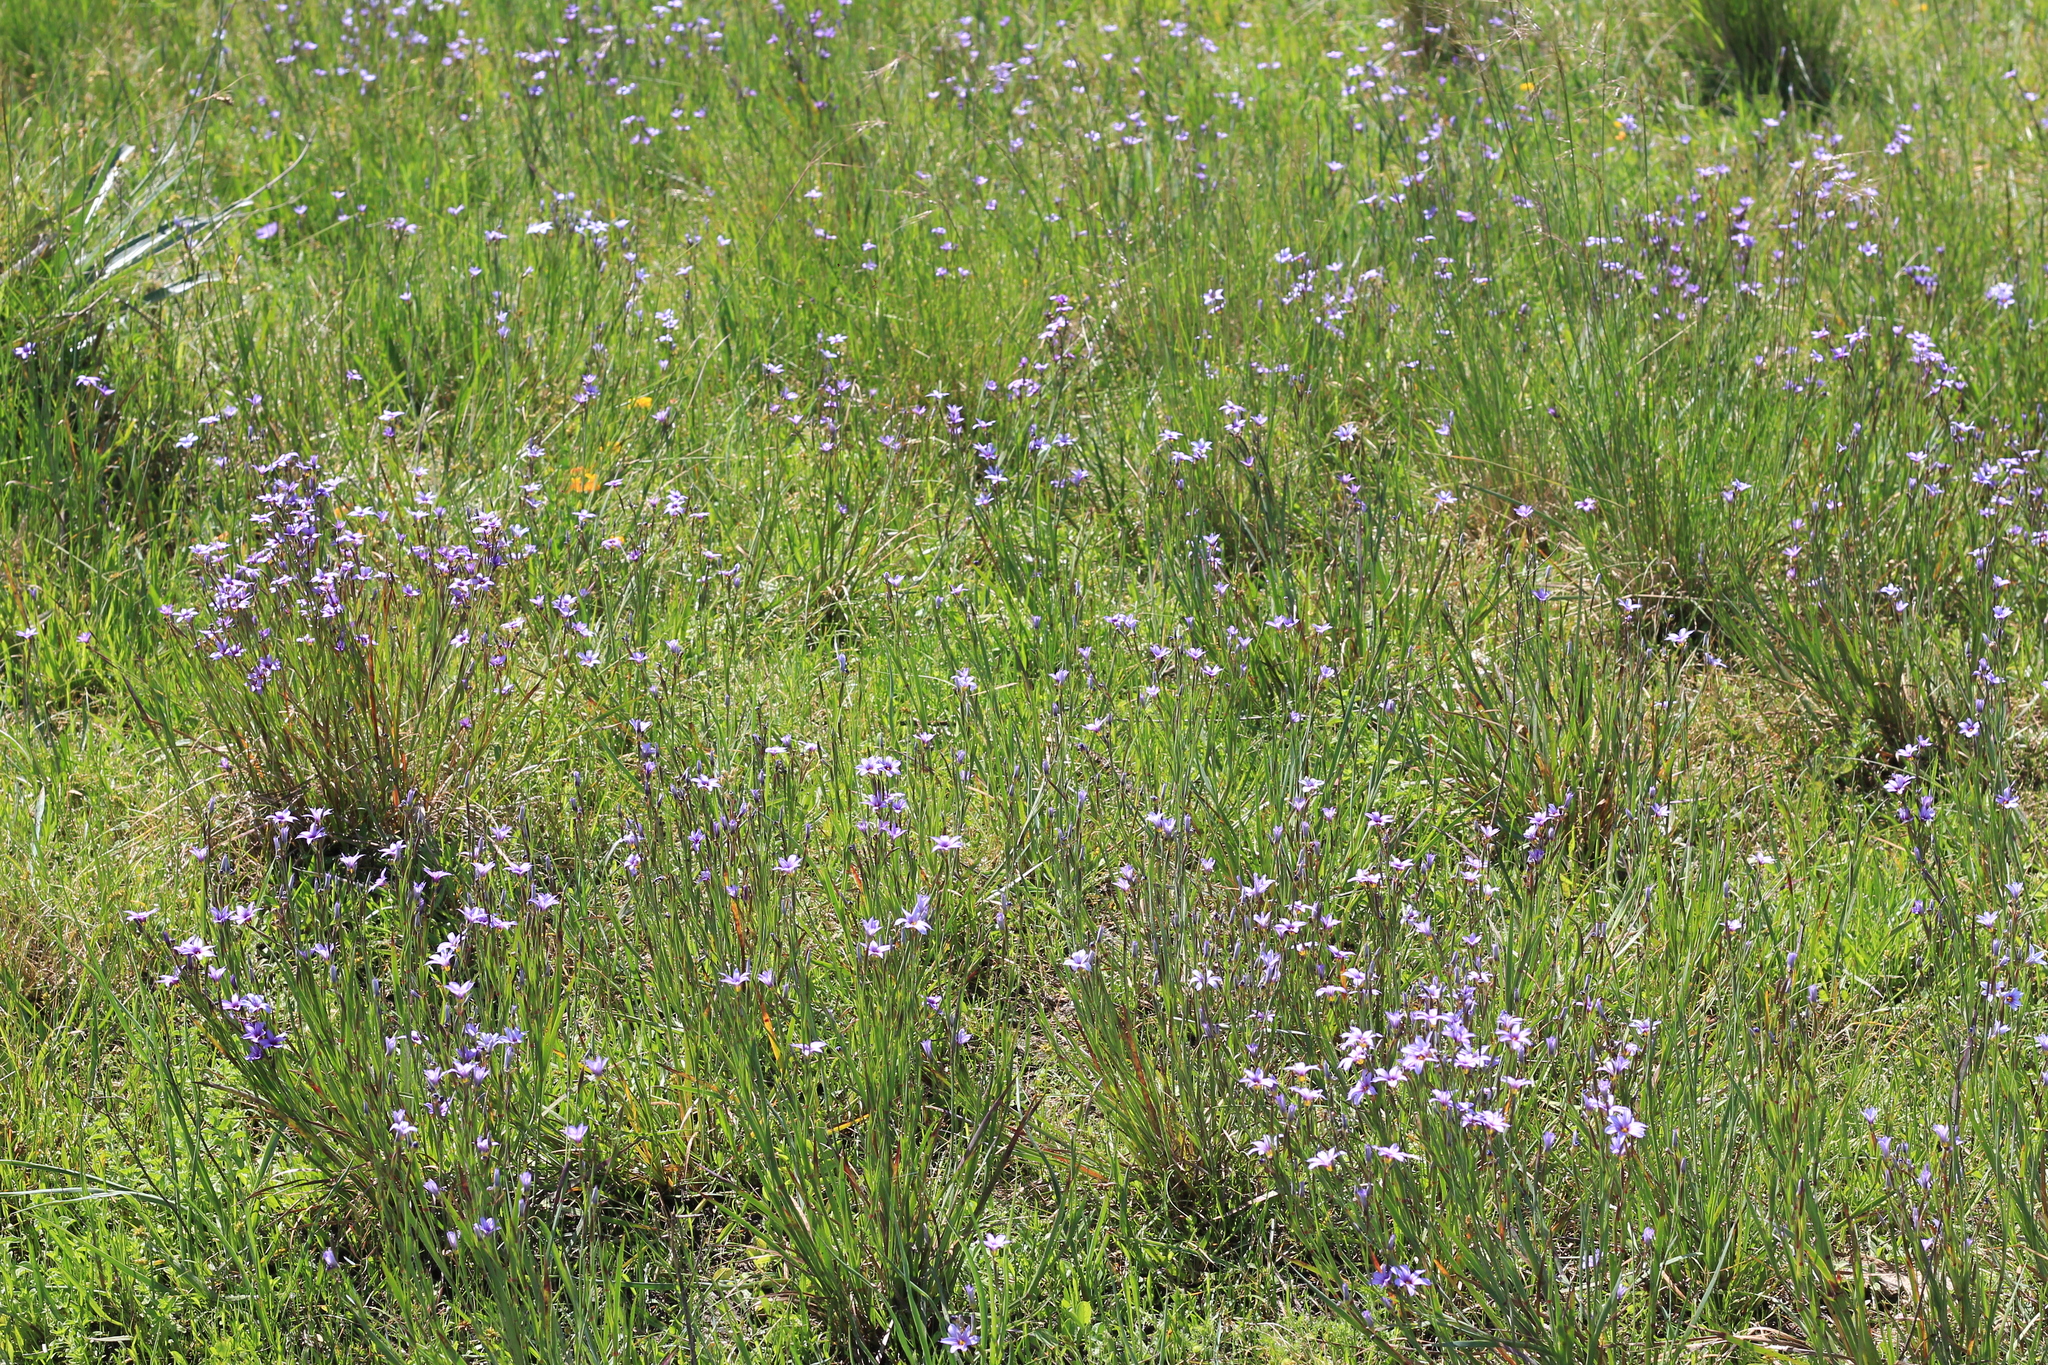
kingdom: Plantae
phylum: Tracheophyta
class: Liliopsida
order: Asparagales
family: Iridaceae
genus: Sisyrinchium
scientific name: Sisyrinchium platense
